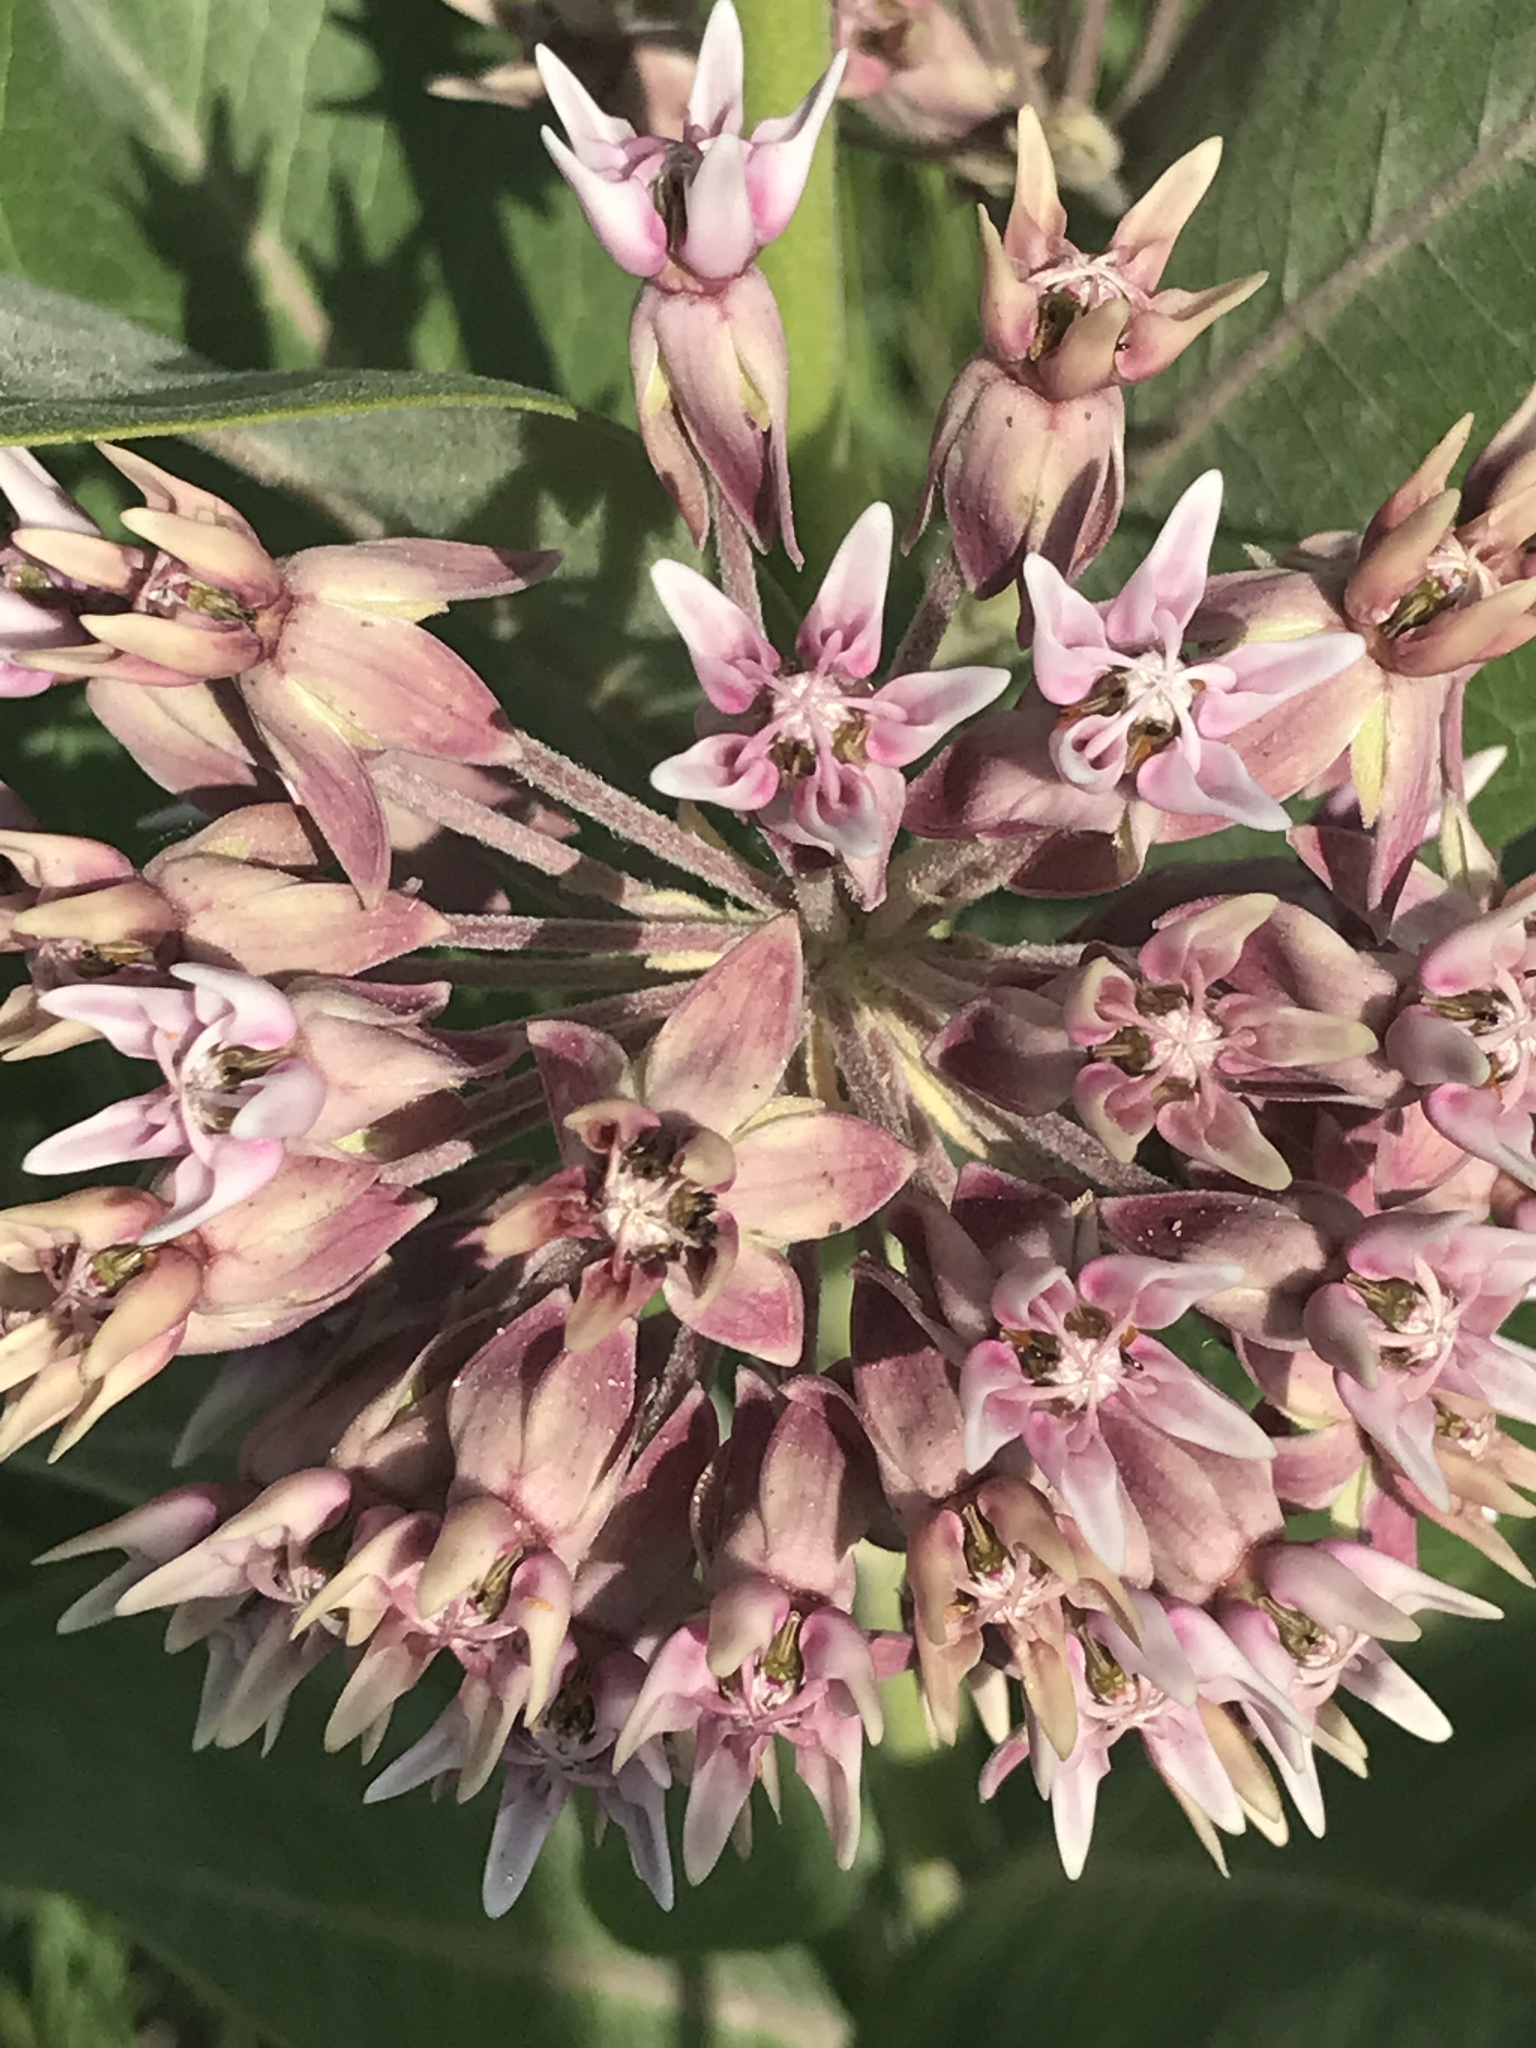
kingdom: Plantae
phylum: Tracheophyta
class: Magnoliopsida
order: Gentianales
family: Apocynaceae
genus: Asclepias
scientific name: Asclepias speciosa
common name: Showy milkweed
